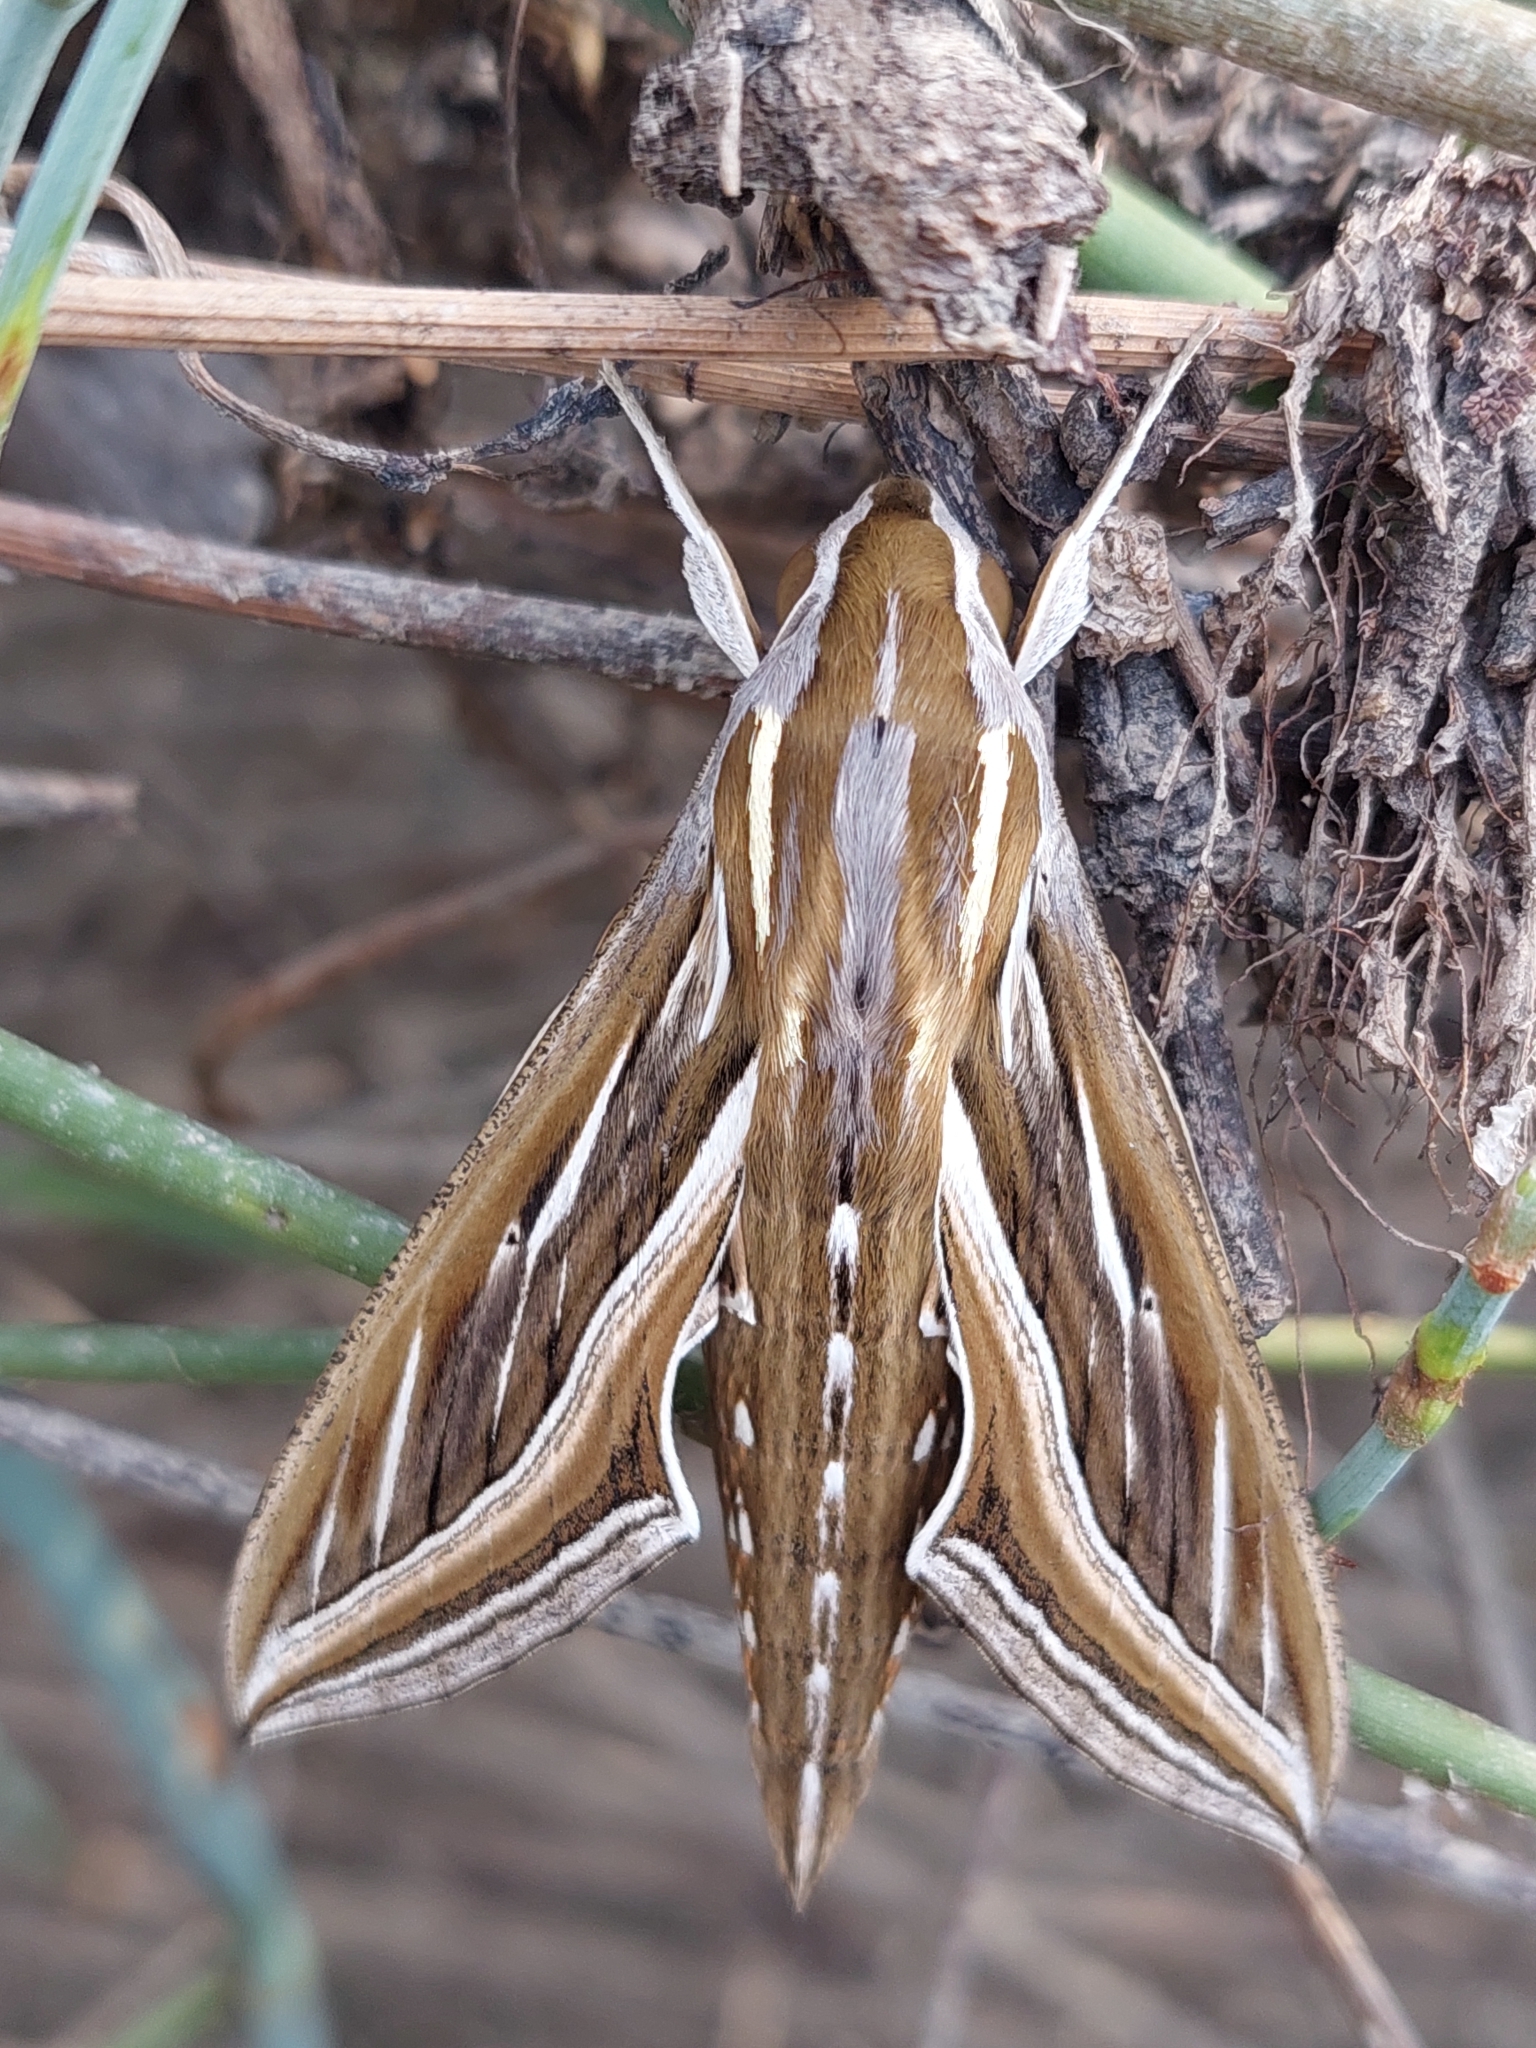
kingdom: Animalia
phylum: Arthropoda
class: Insecta
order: Lepidoptera
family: Sphingidae
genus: Hippotion
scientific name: Hippotion celerio
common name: Silver-striped hawk-moth
